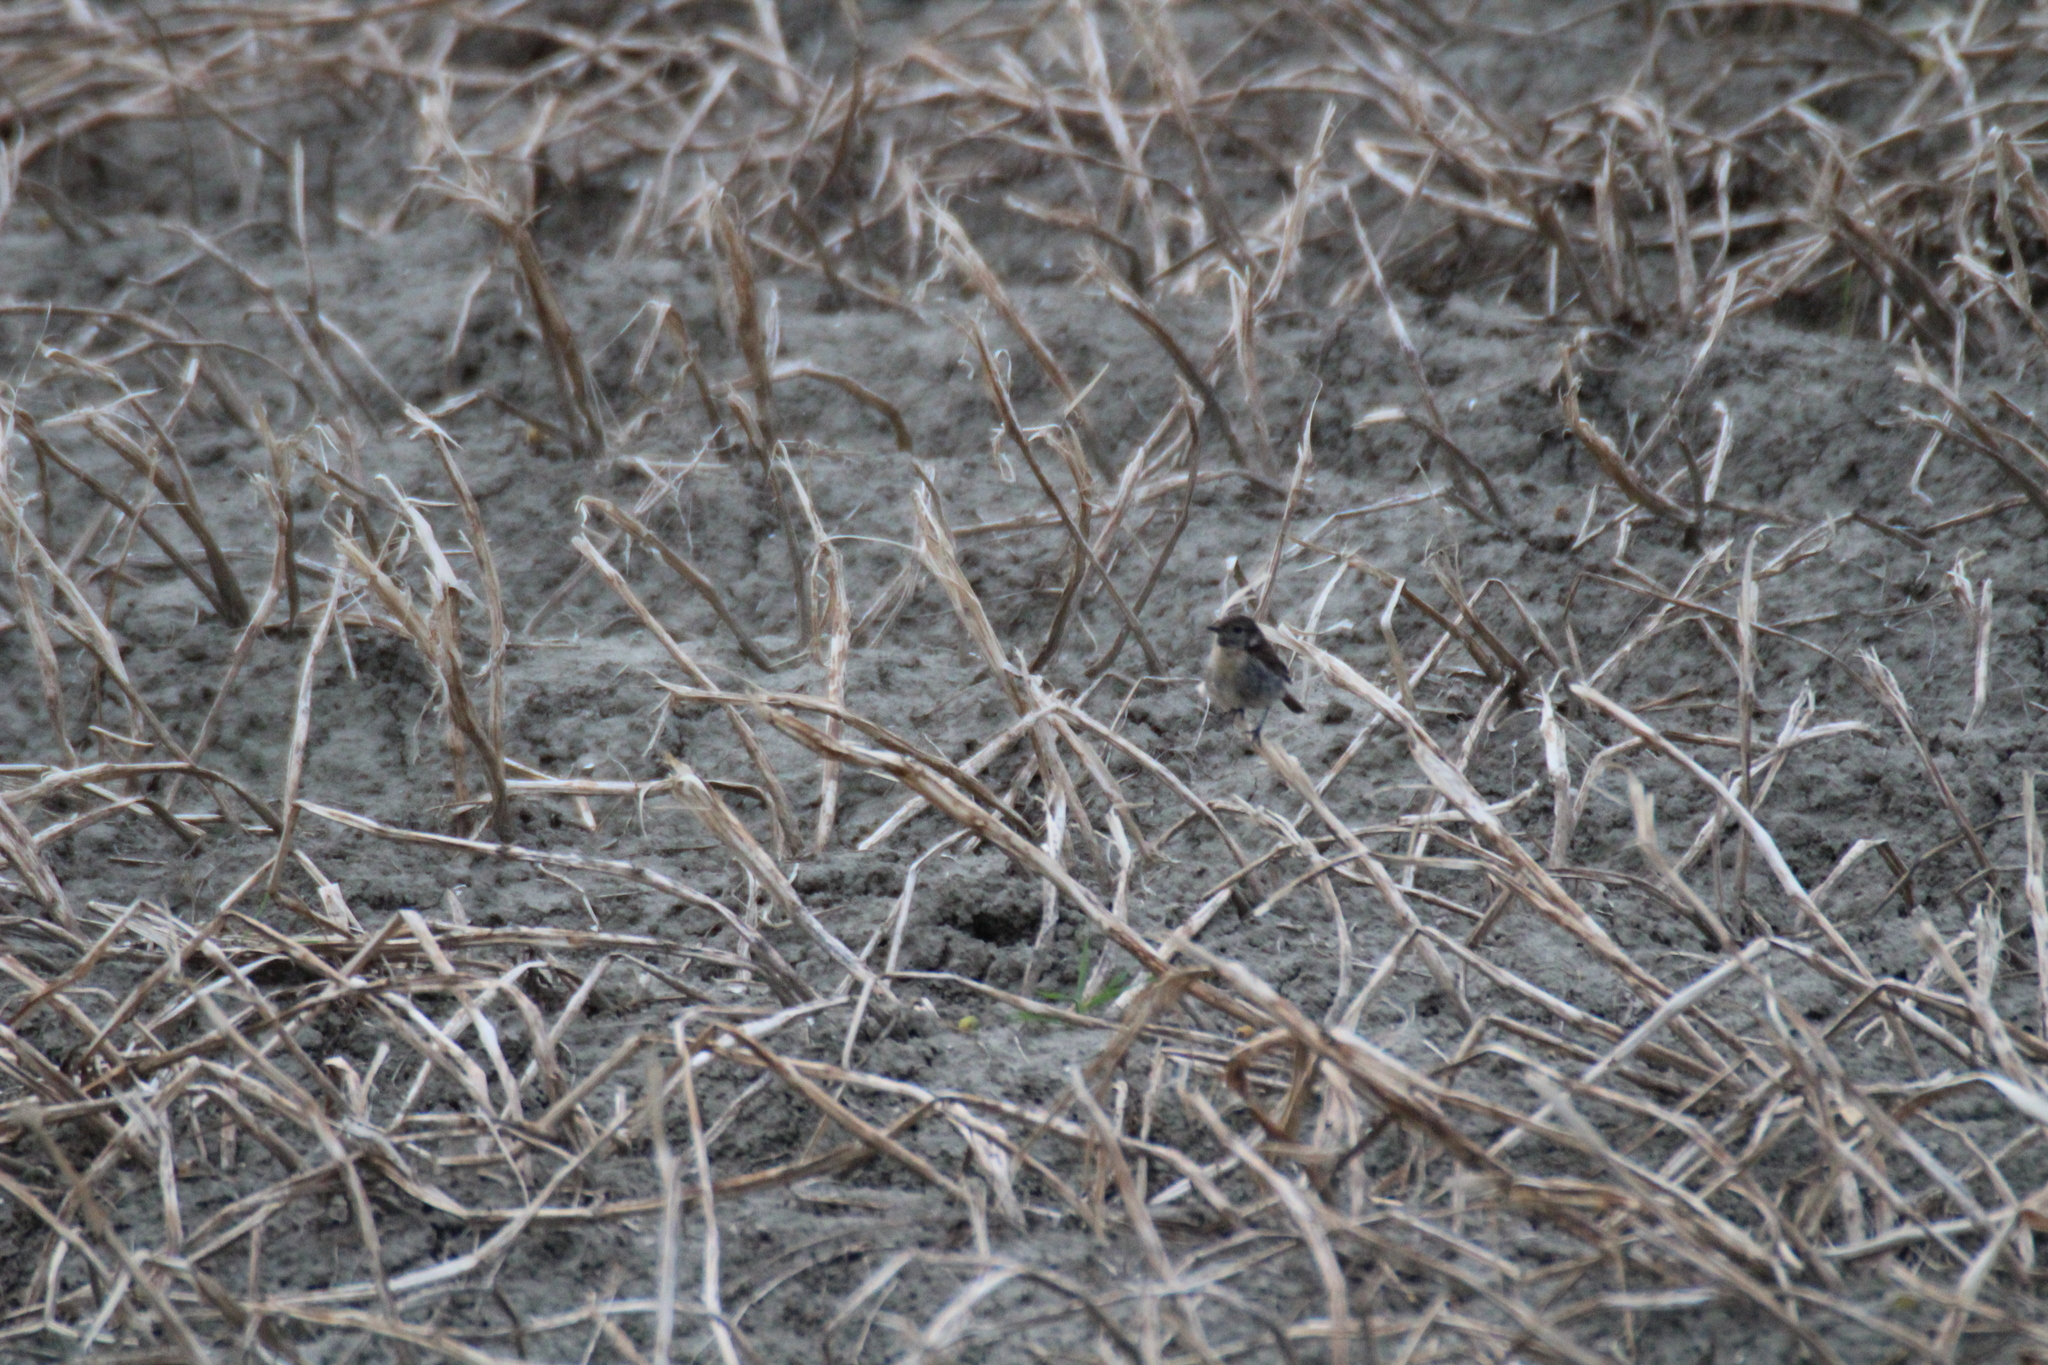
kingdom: Animalia
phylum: Chordata
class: Aves
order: Passeriformes
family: Muscicapidae
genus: Saxicola
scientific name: Saxicola rubicola
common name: European stonechat
